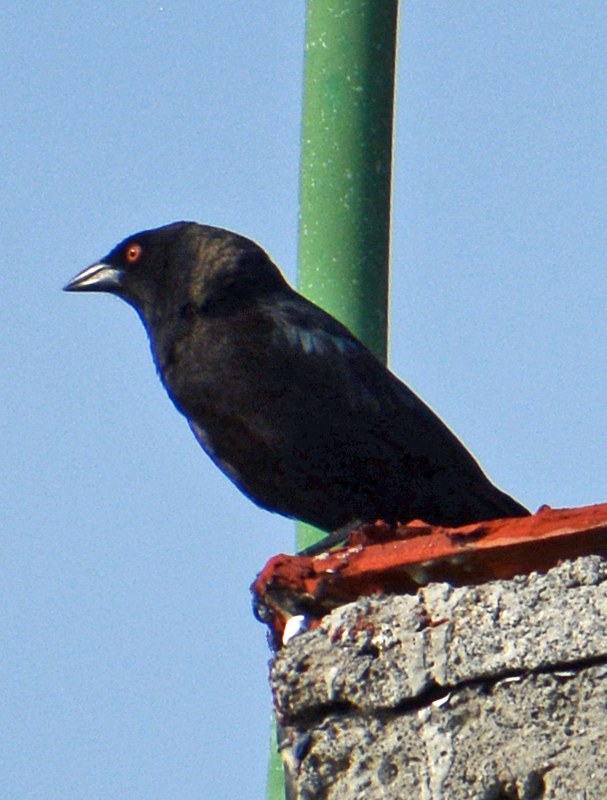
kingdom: Animalia
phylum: Chordata
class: Aves
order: Passeriformes
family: Icteridae
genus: Molothrus
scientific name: Molothrus aeneus
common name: Bronzed cowbird
